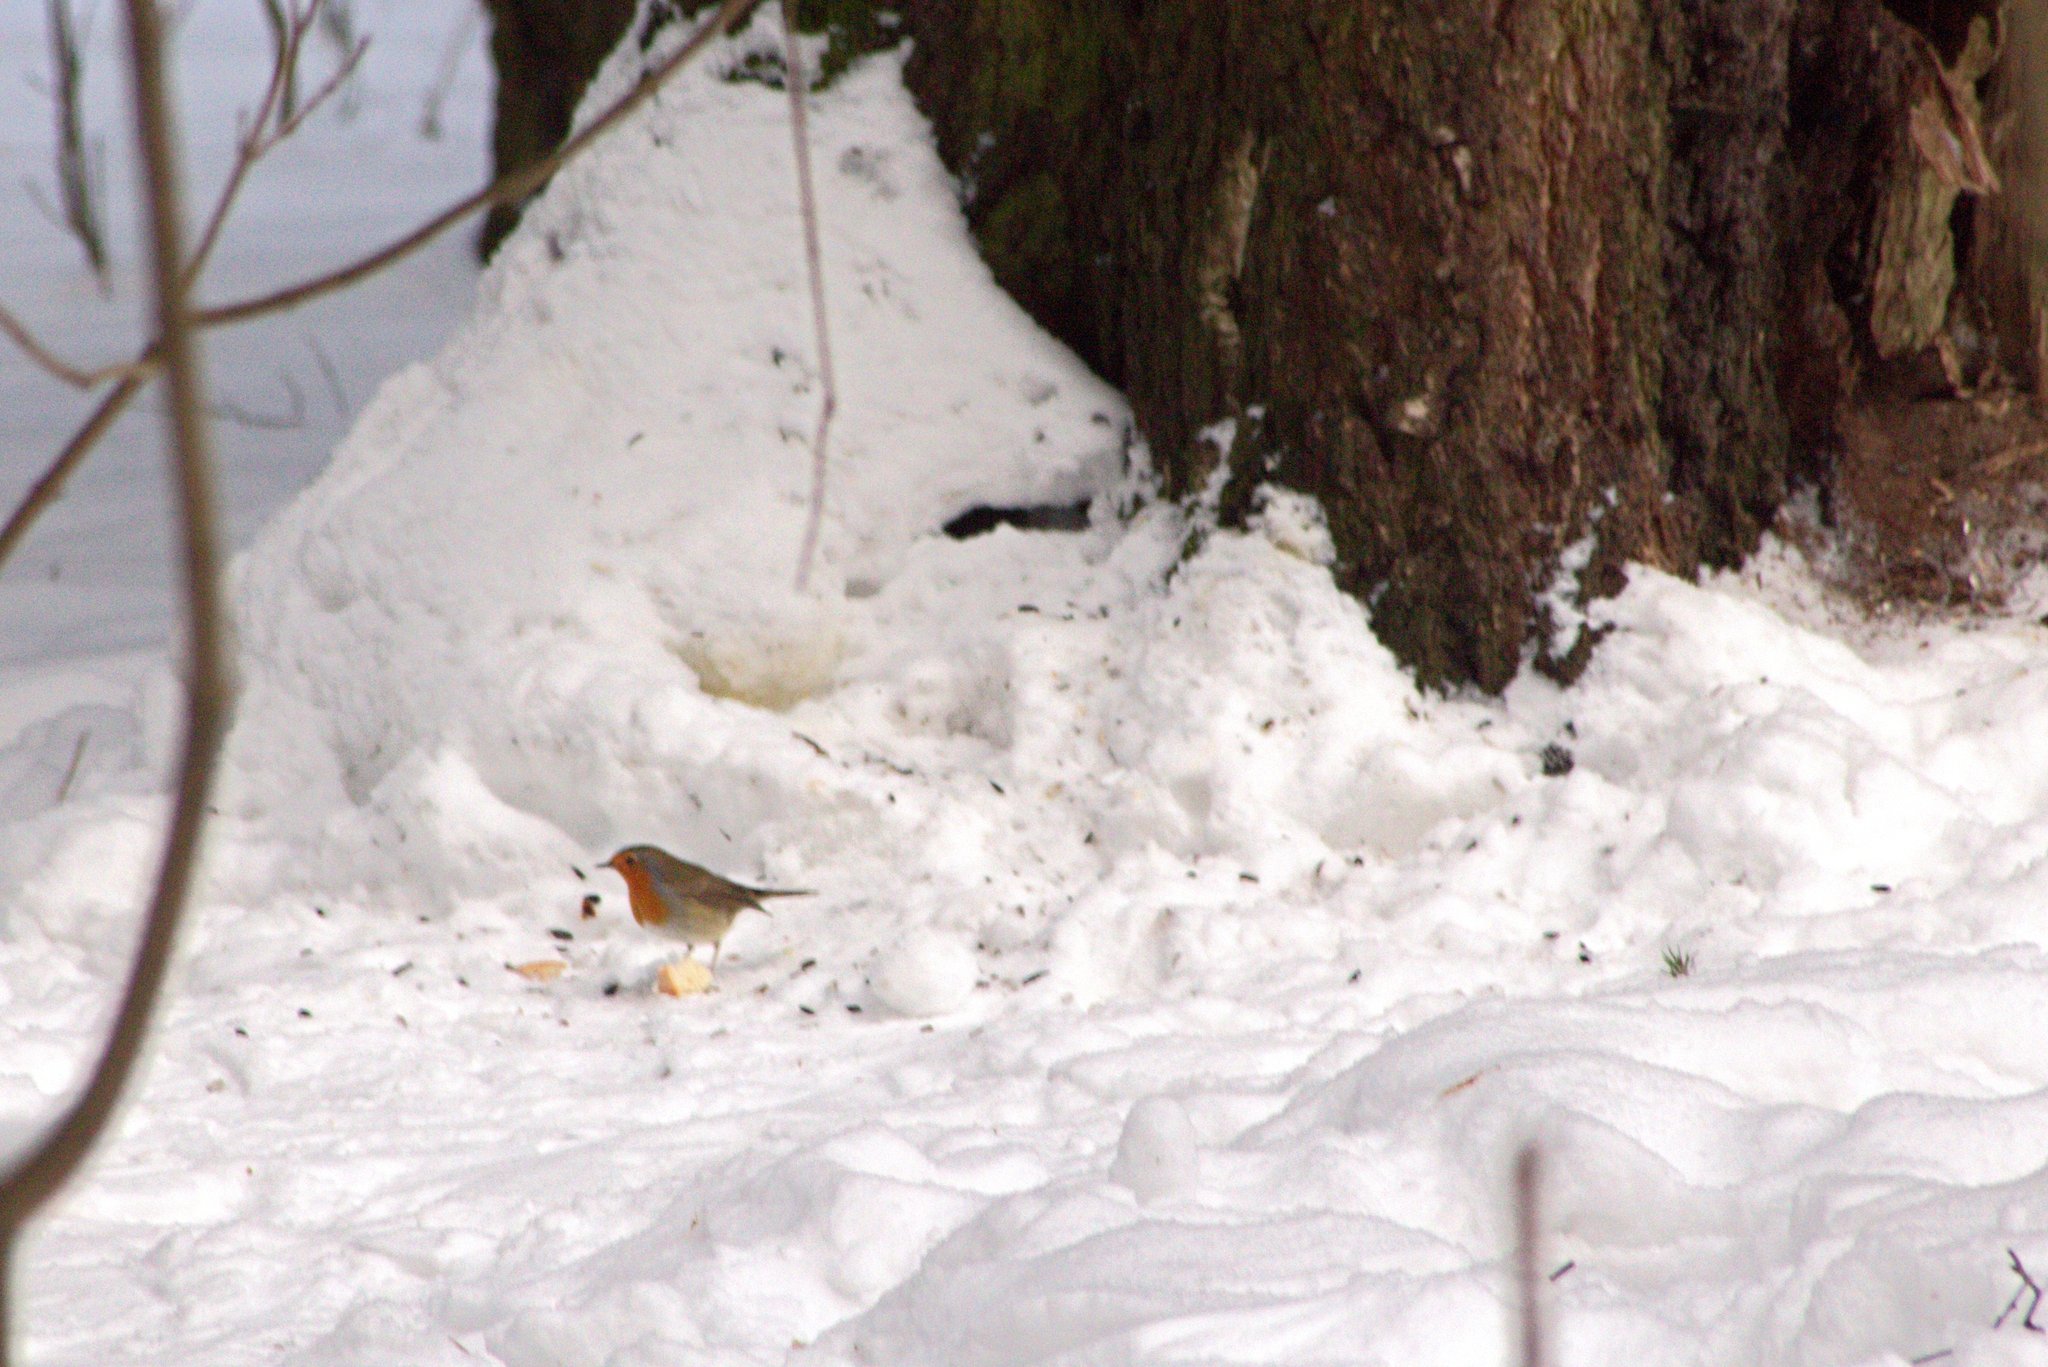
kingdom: Animalia
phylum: Chordata
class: Aves
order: Passeriformes
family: Muscicapidae
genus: Erithacus
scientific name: Erithacus rubecula
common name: European robin
